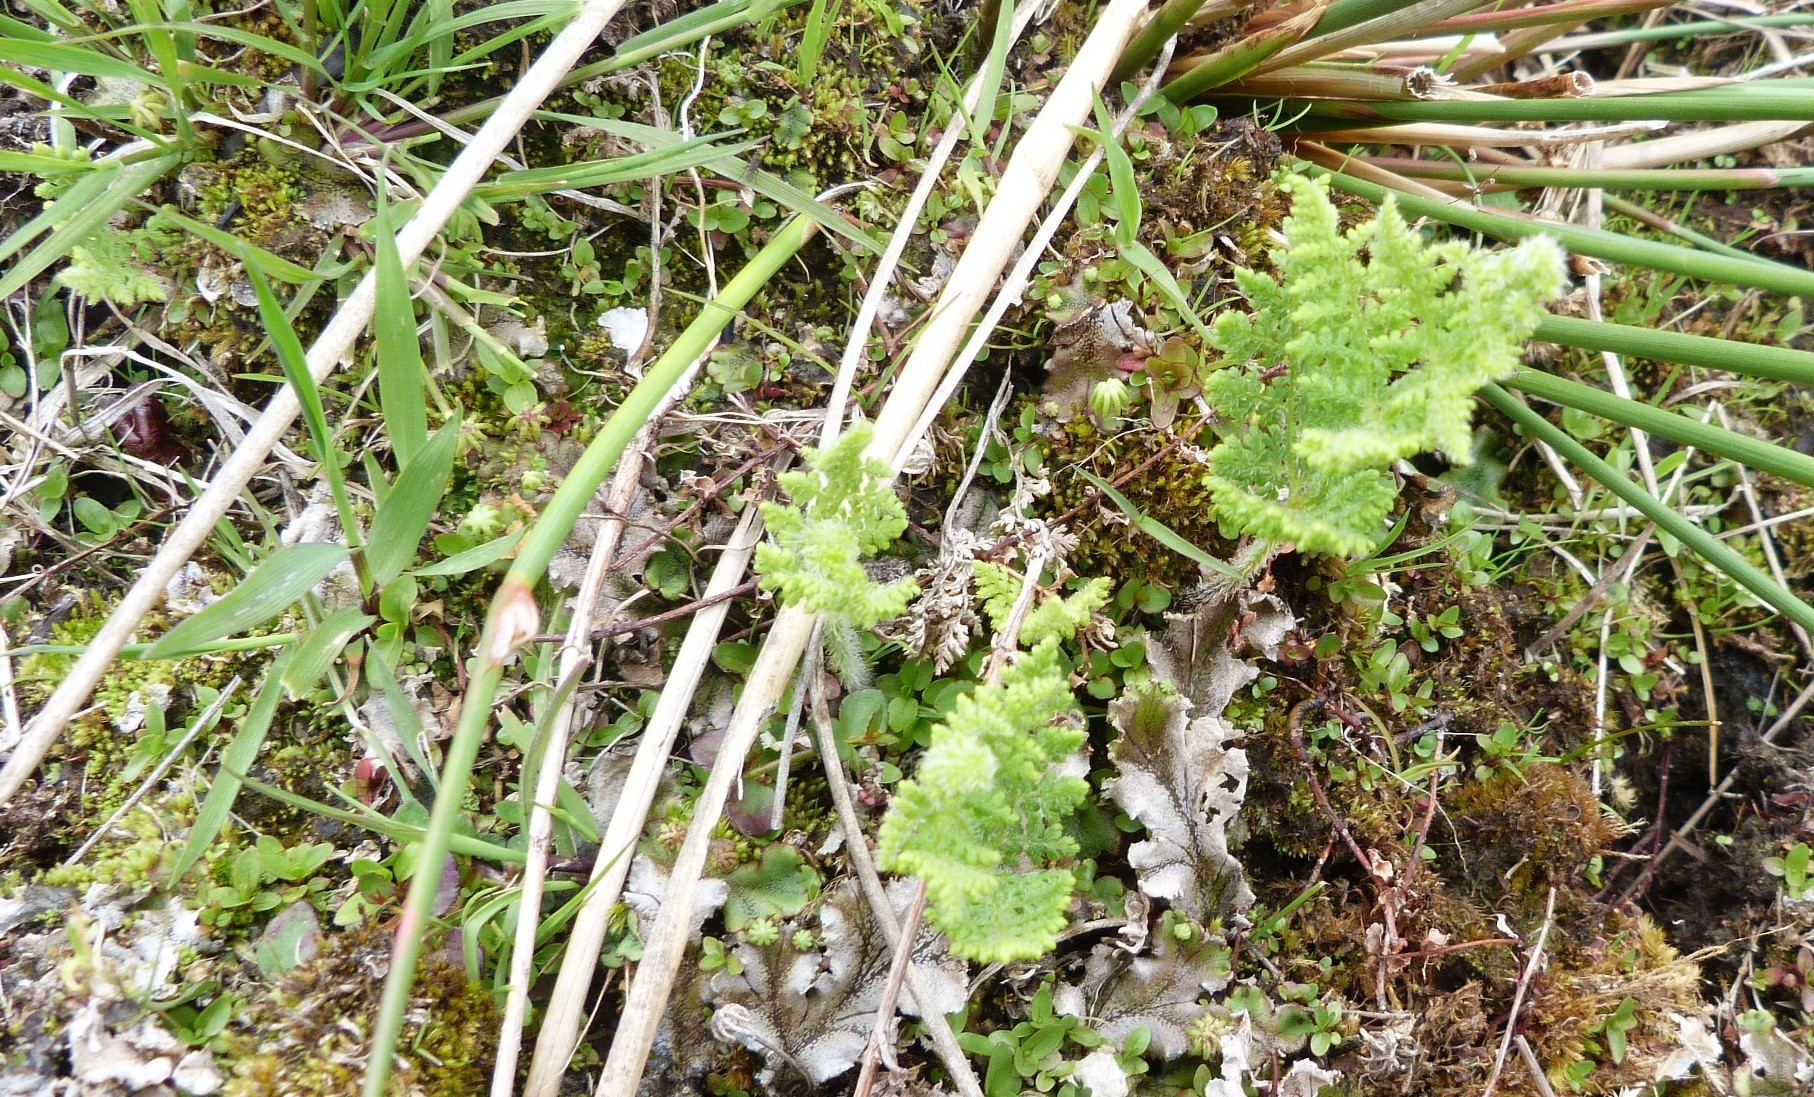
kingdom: Plantae
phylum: Tracheophyta
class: Polypodiopsida
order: Polypodiales
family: Dennstaedtiaceae
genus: Hypolepis
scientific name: Hypolepis millefolium
